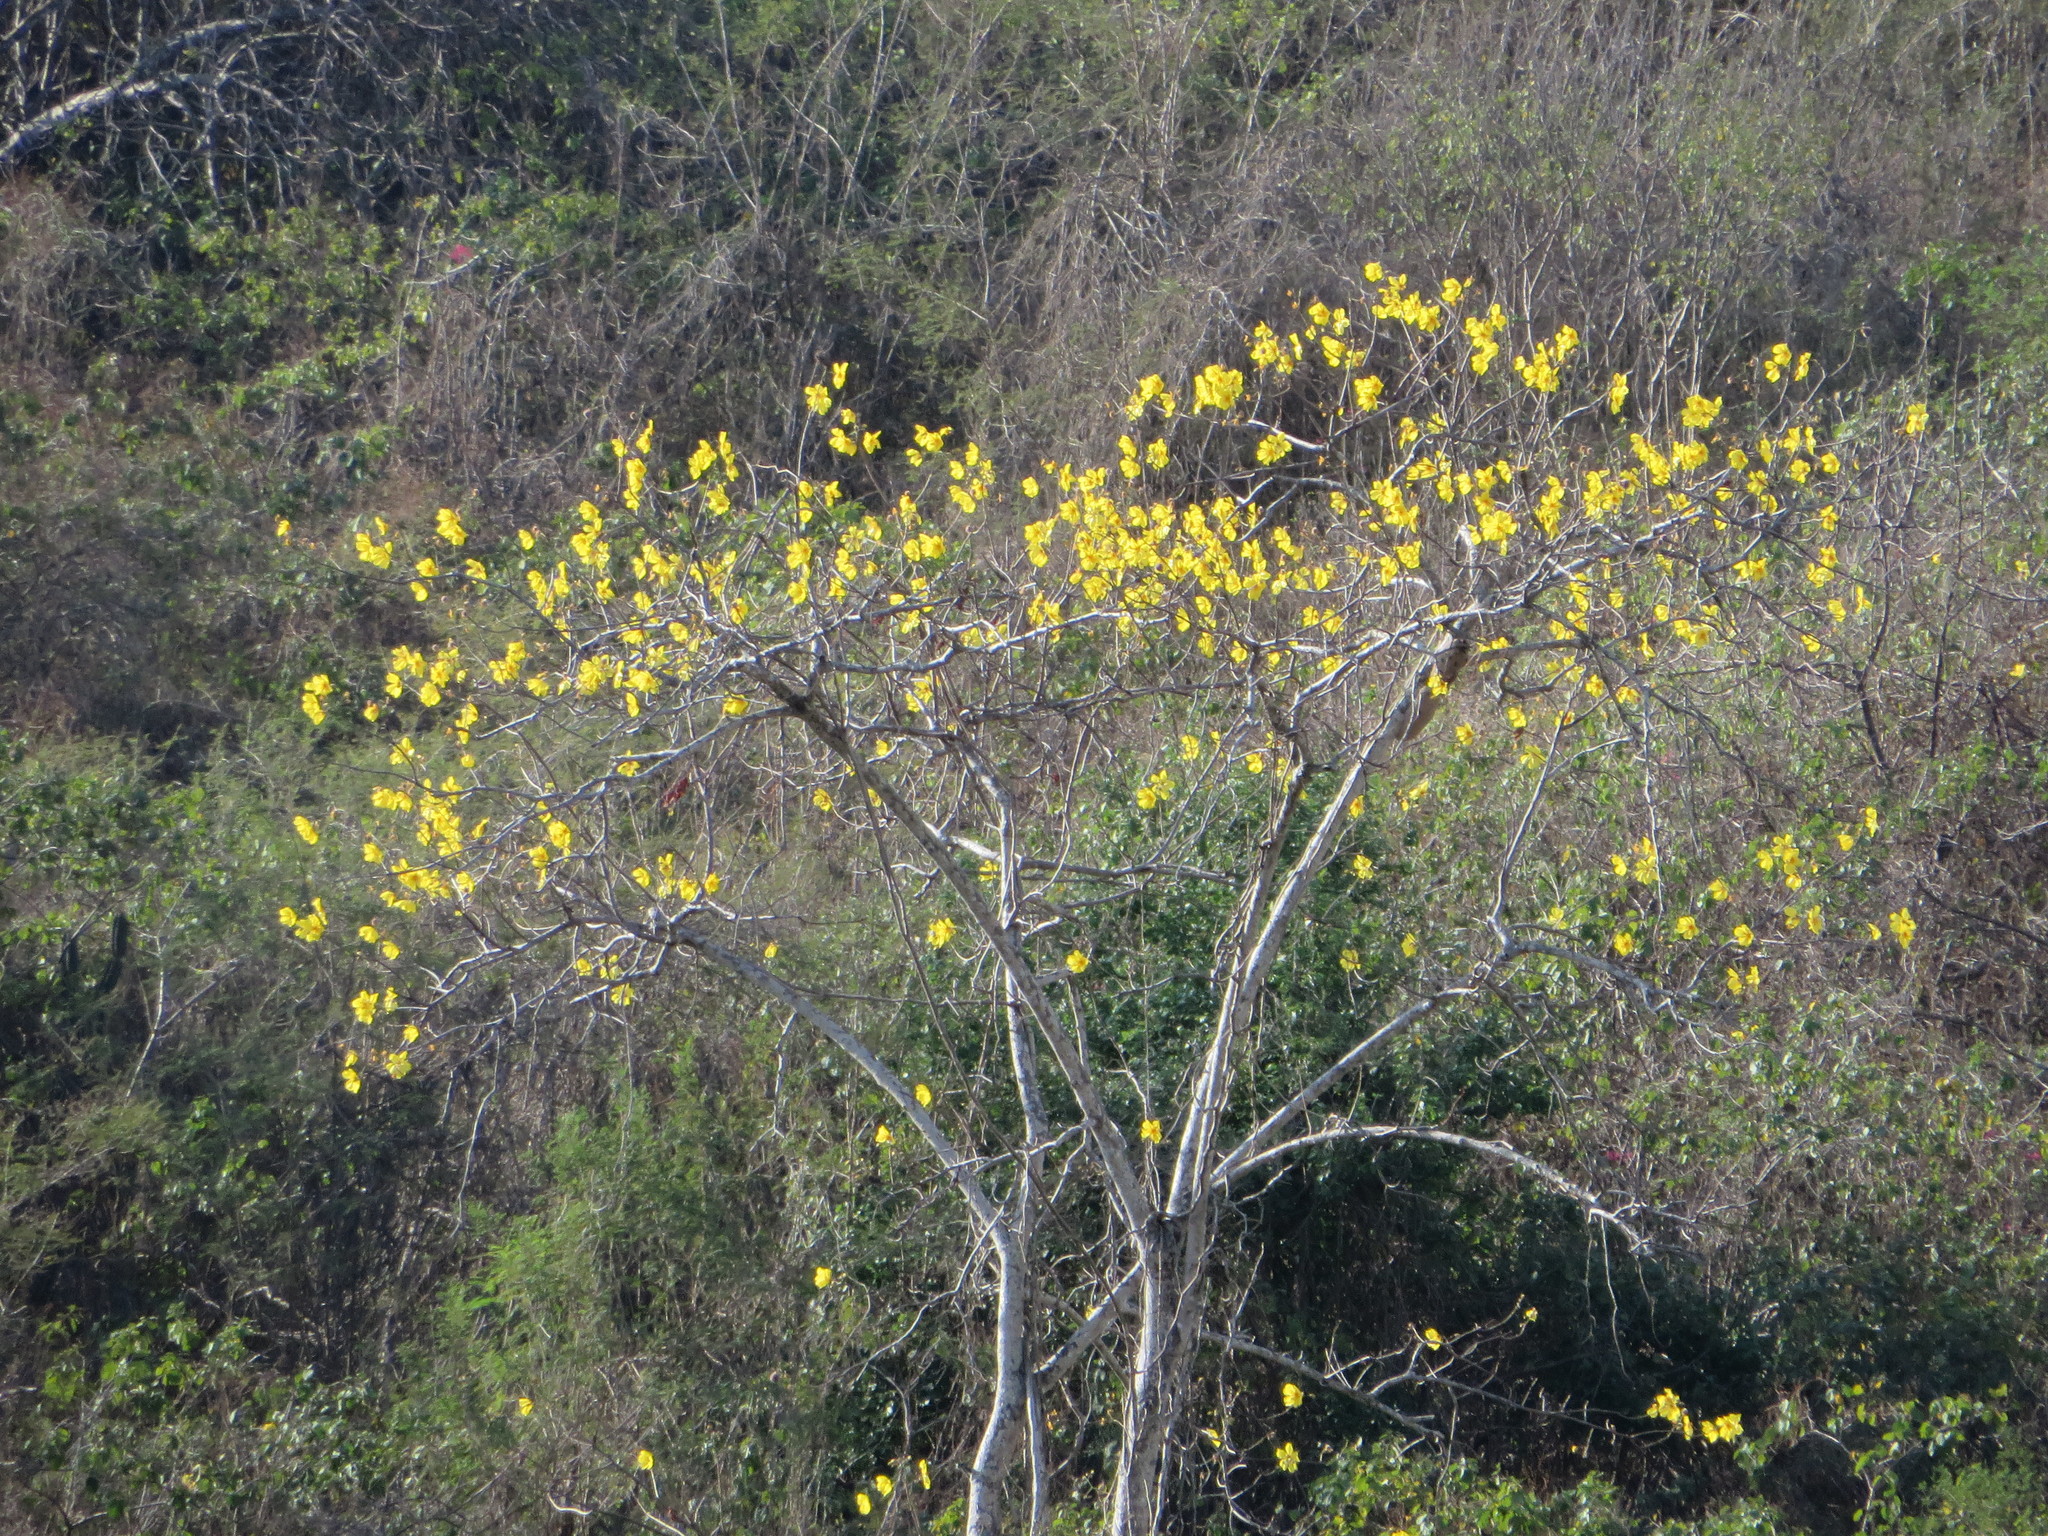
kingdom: Plantae
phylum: Tracheophyta
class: Magnoliopsida
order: Malvales
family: Cochlospermaceae
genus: Cochlospermum
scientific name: Cochlospermum vitifolium
